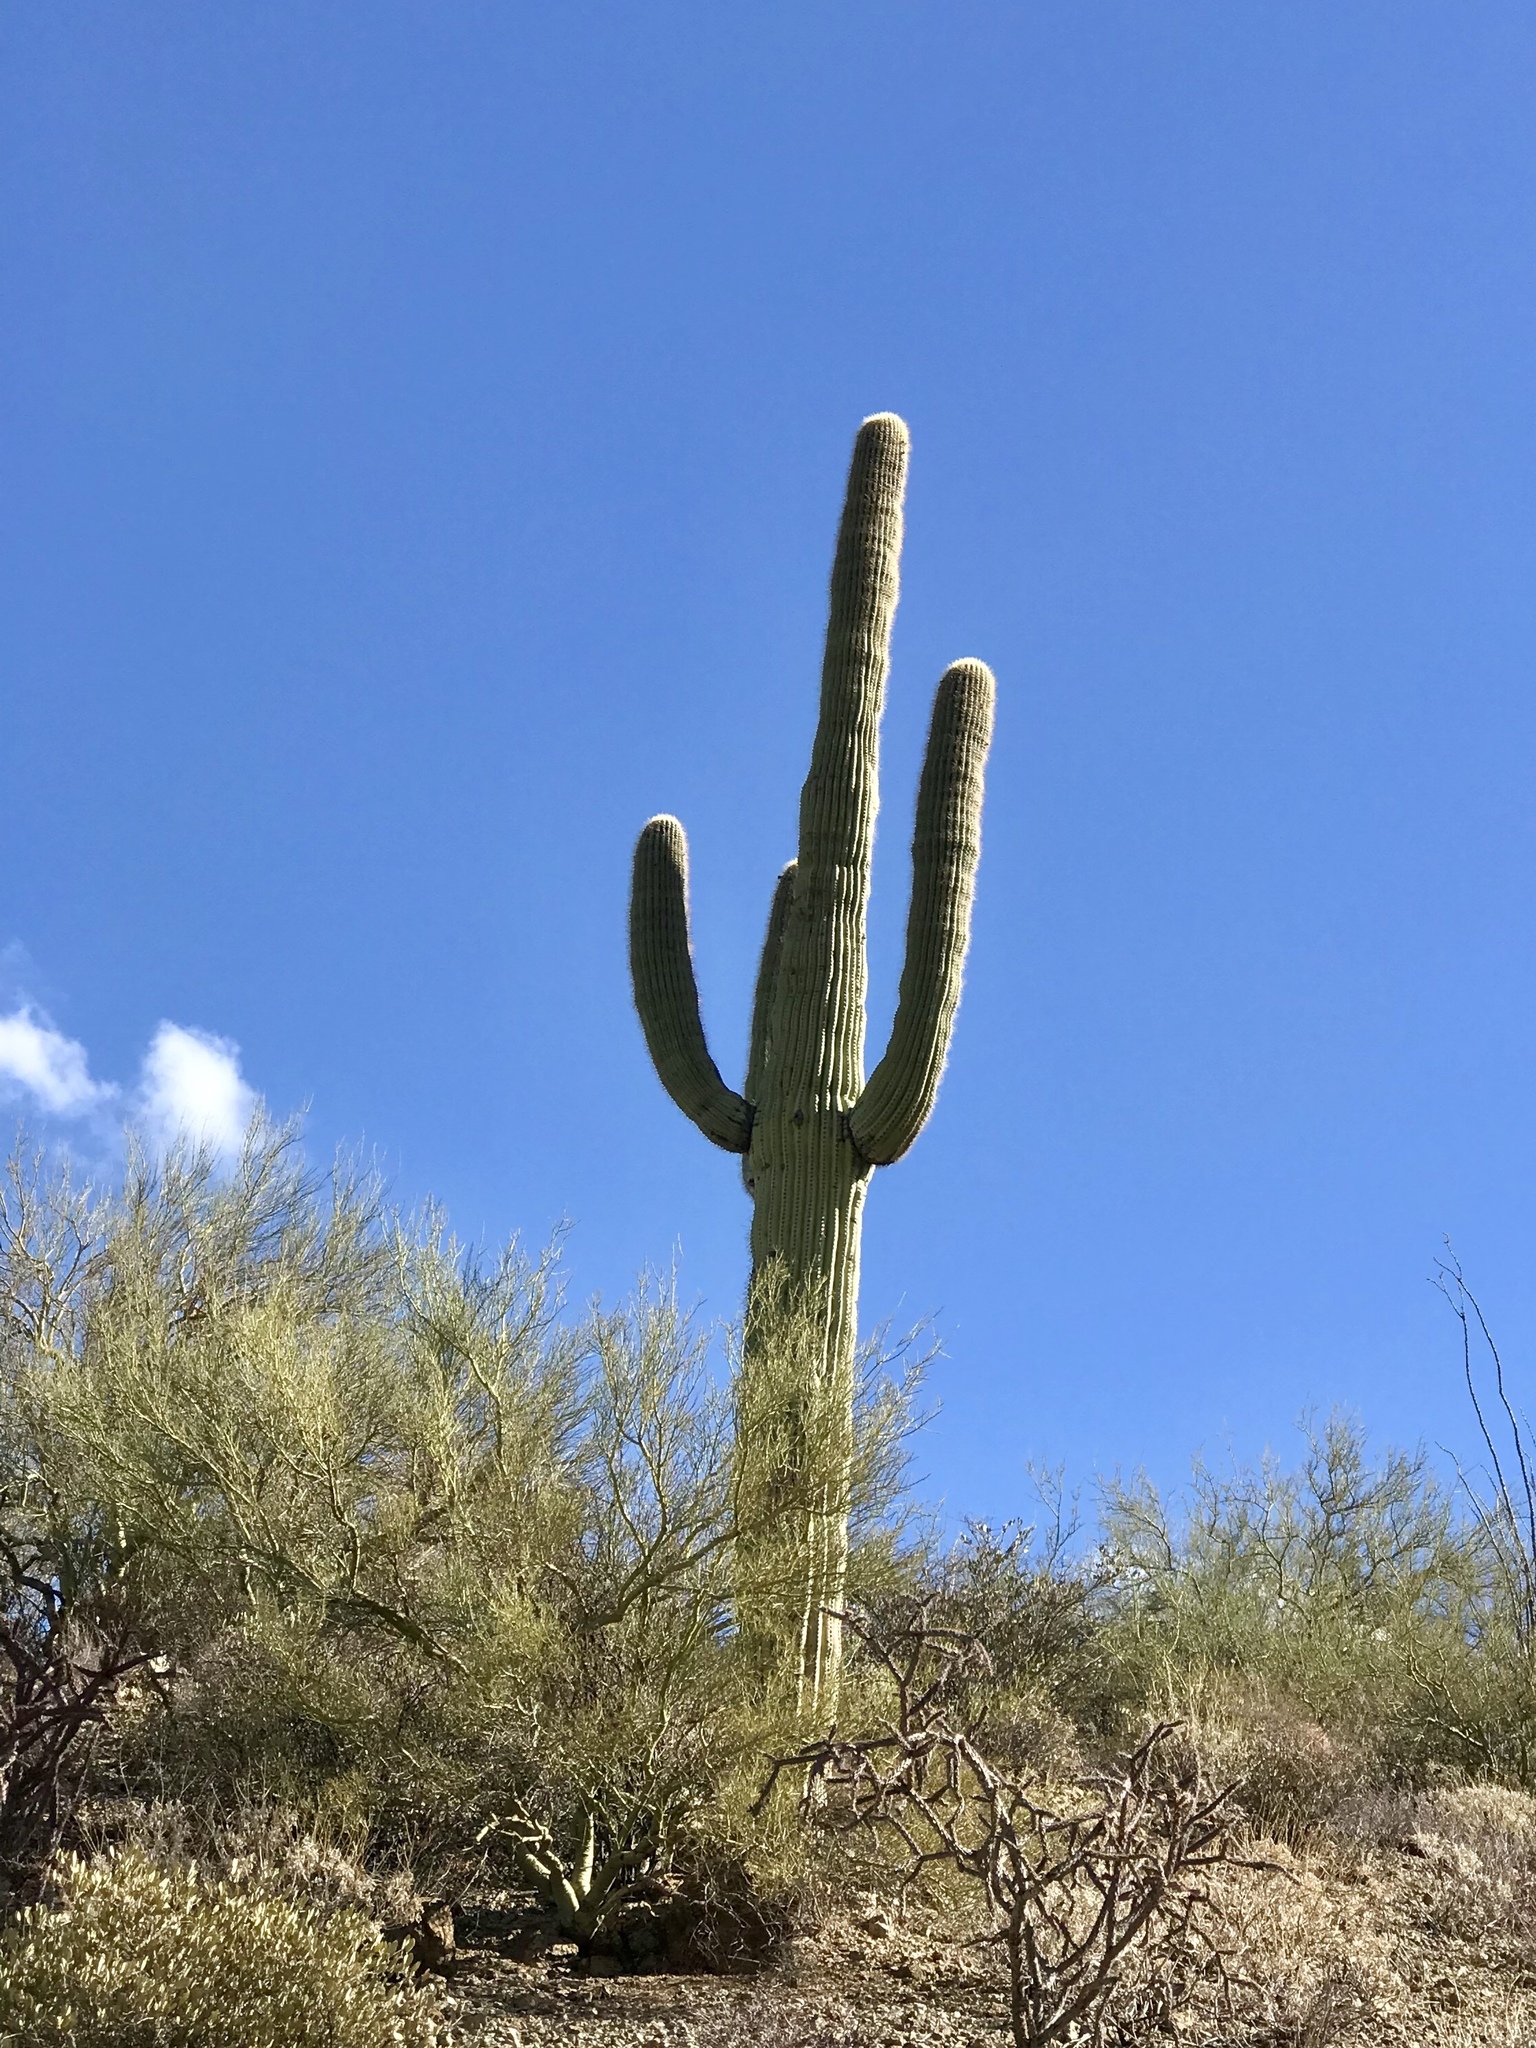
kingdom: Plantae
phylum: Tracheophyta
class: Magnoliopsida
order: Caryophyllales
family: Cactaceae
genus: Carnegiea
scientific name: Carnegiea gigantea
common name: Saguaro
